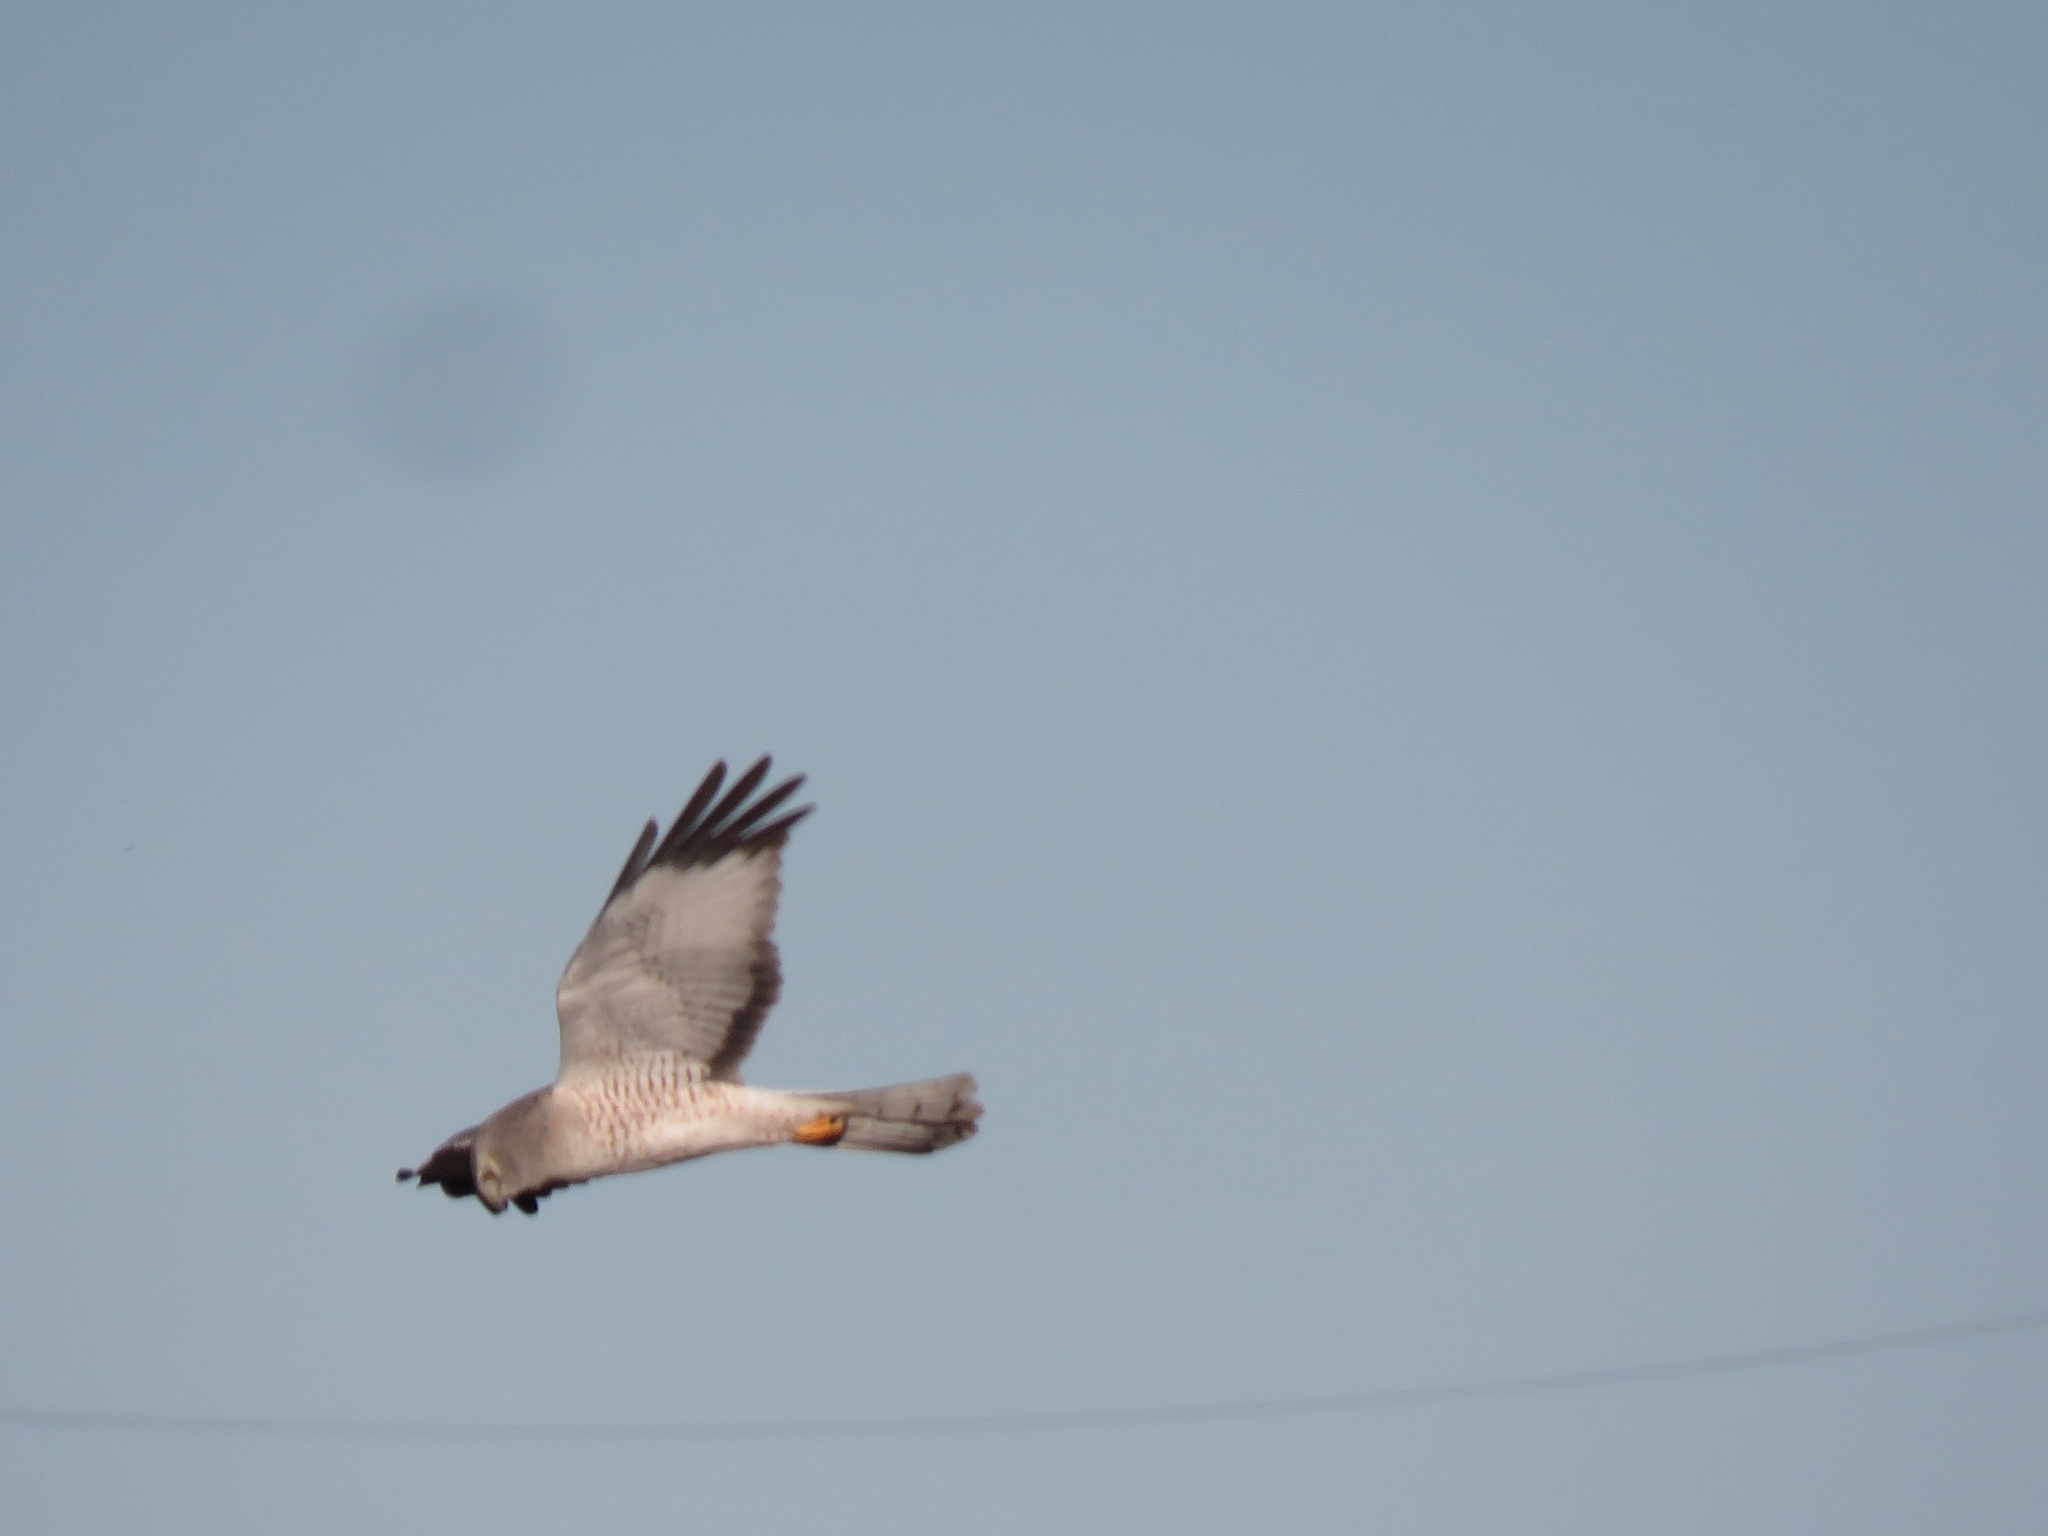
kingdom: Animalia
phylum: Chordata
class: Aves
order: Accipitriformes
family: Accipitridae
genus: Circus
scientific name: Circus cyaneus
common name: Hen harrier
